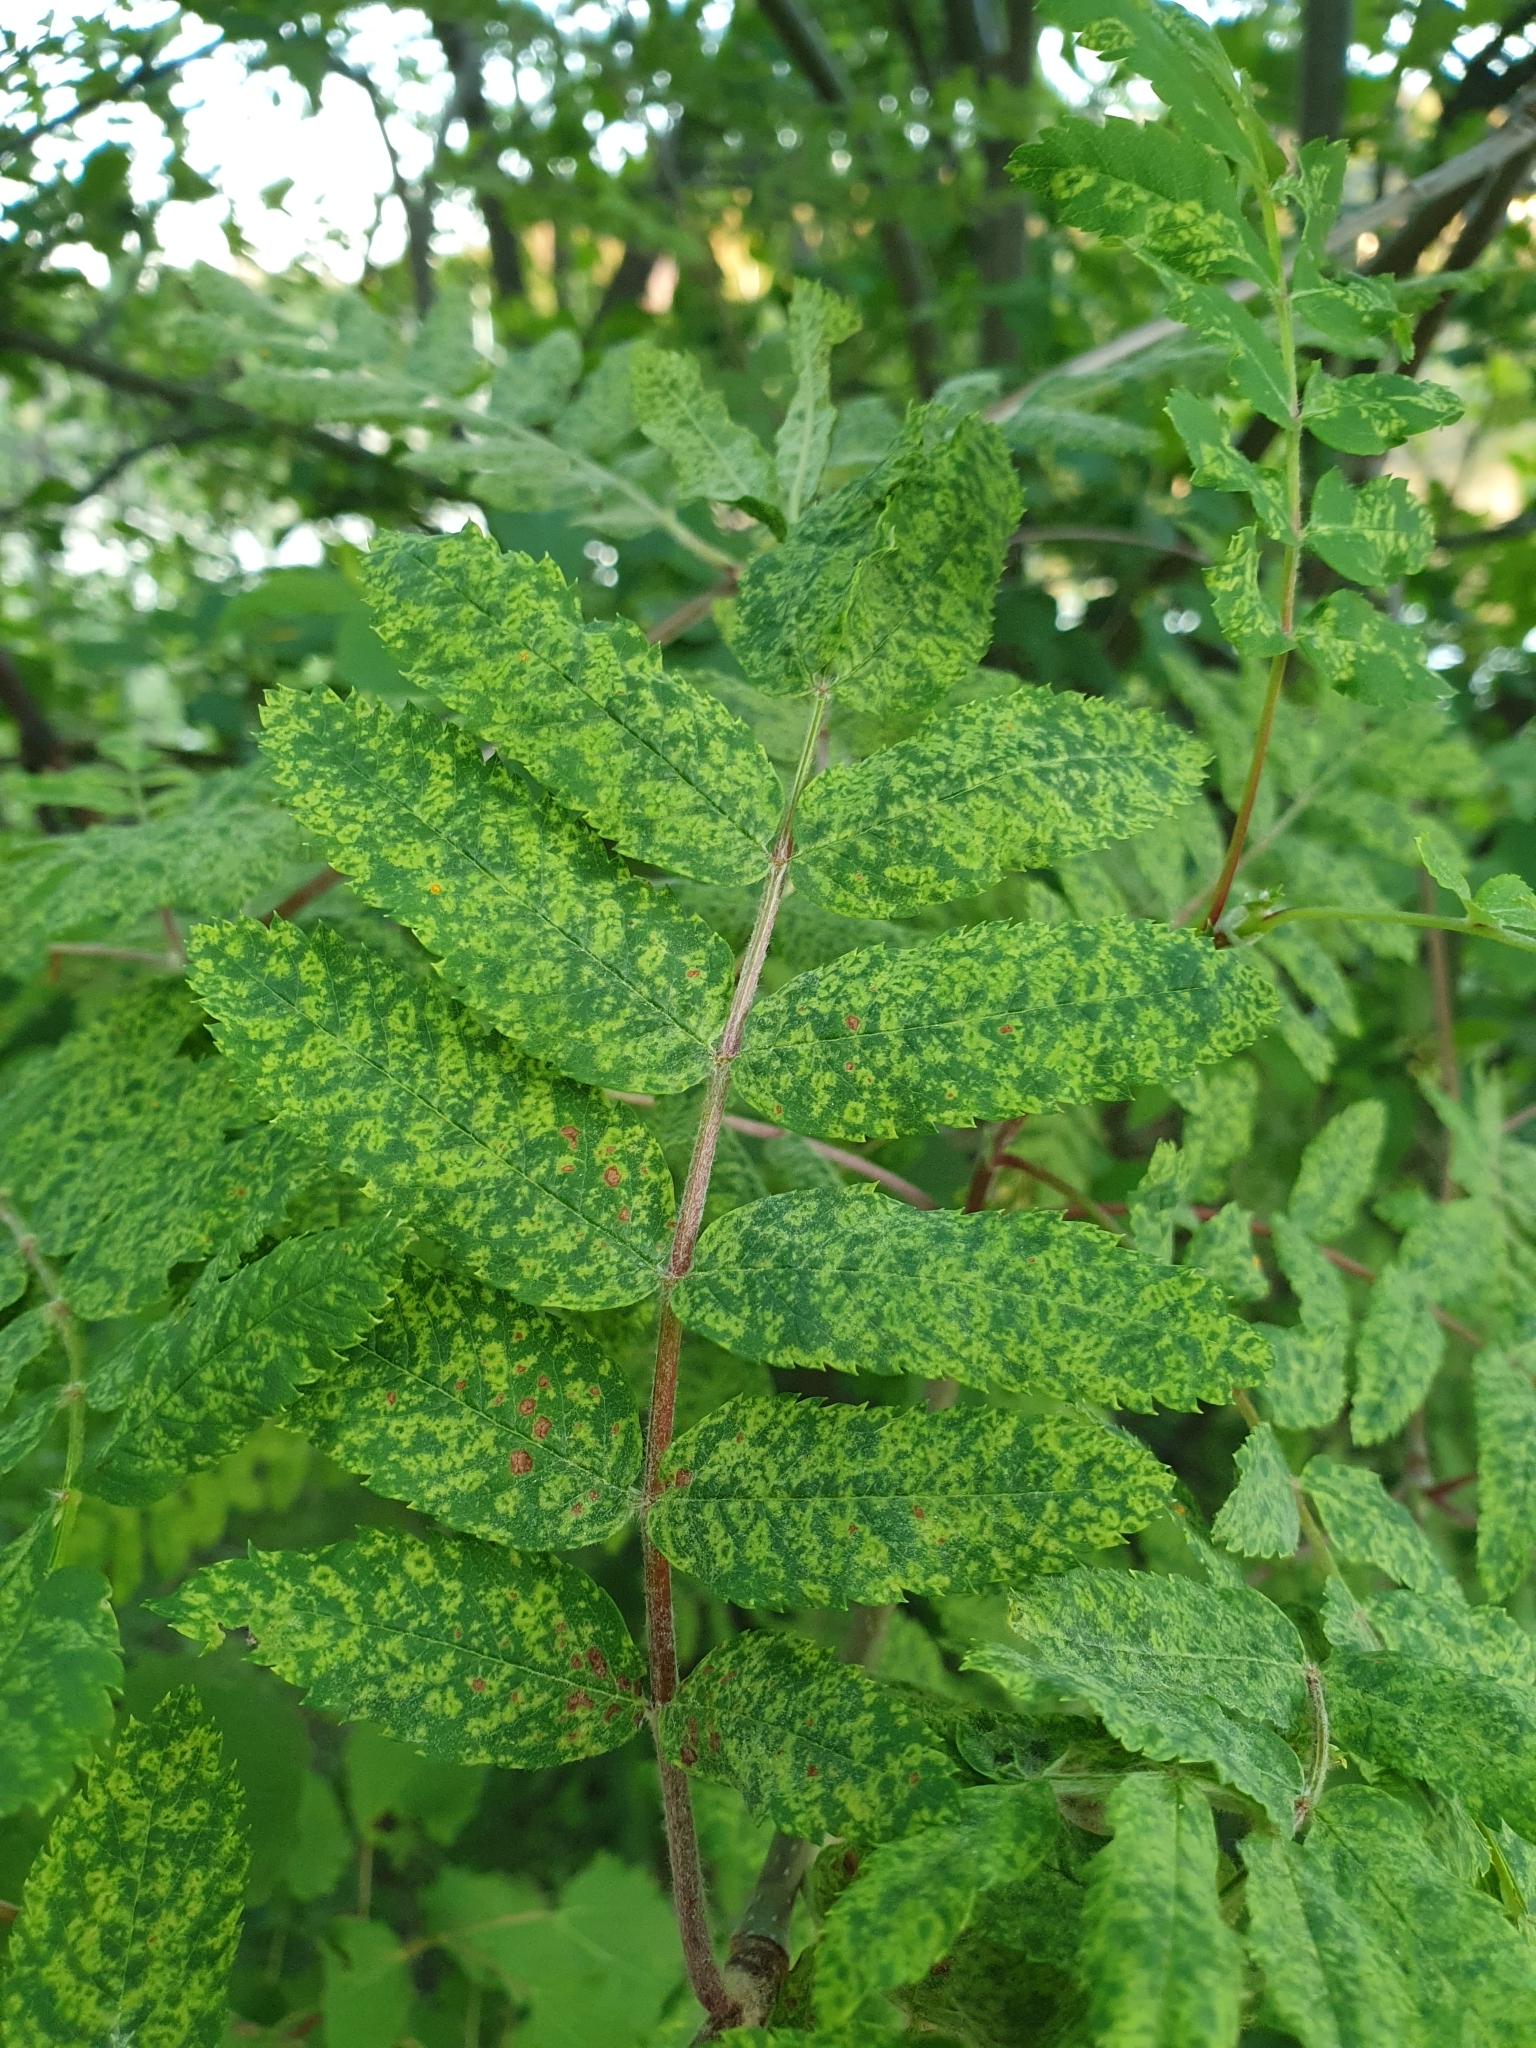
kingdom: Viruses
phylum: Negarnaviricota
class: Ellioviricetes
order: Bunyavirales
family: Fimoviridae
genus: Emaravirus
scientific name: Emaravirus sorbi
